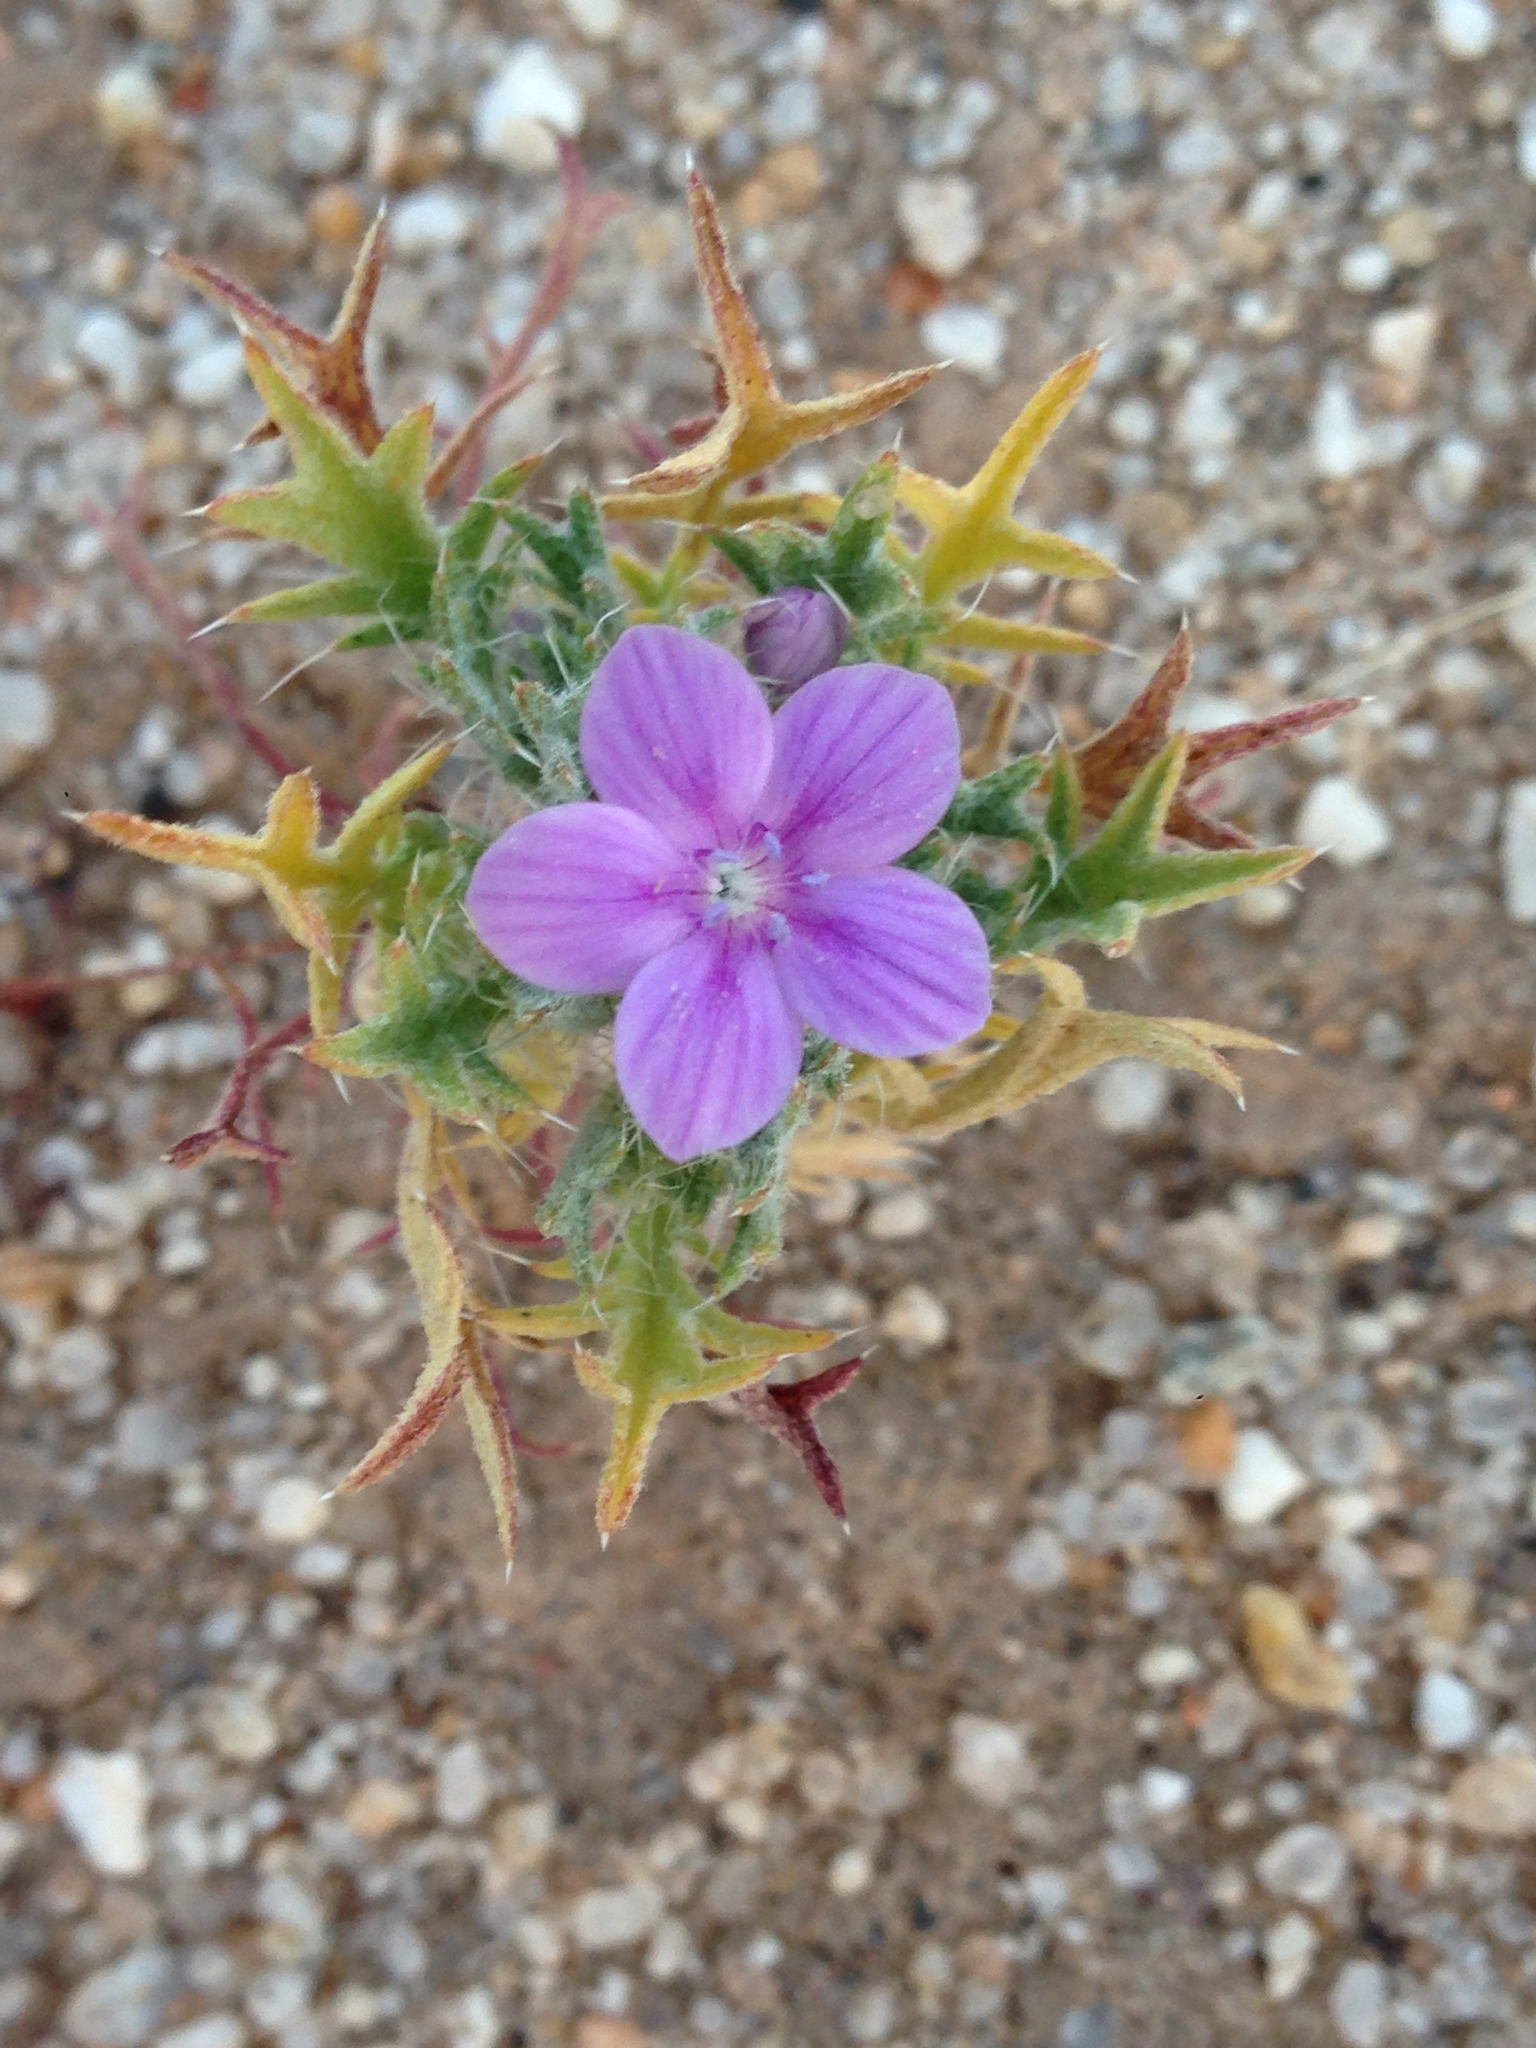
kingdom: Plantae
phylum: Tracheophyta
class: Magnoliopsida
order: Ericales
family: Polemoniaceae
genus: Langloisia
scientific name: Langloisia setosissima
